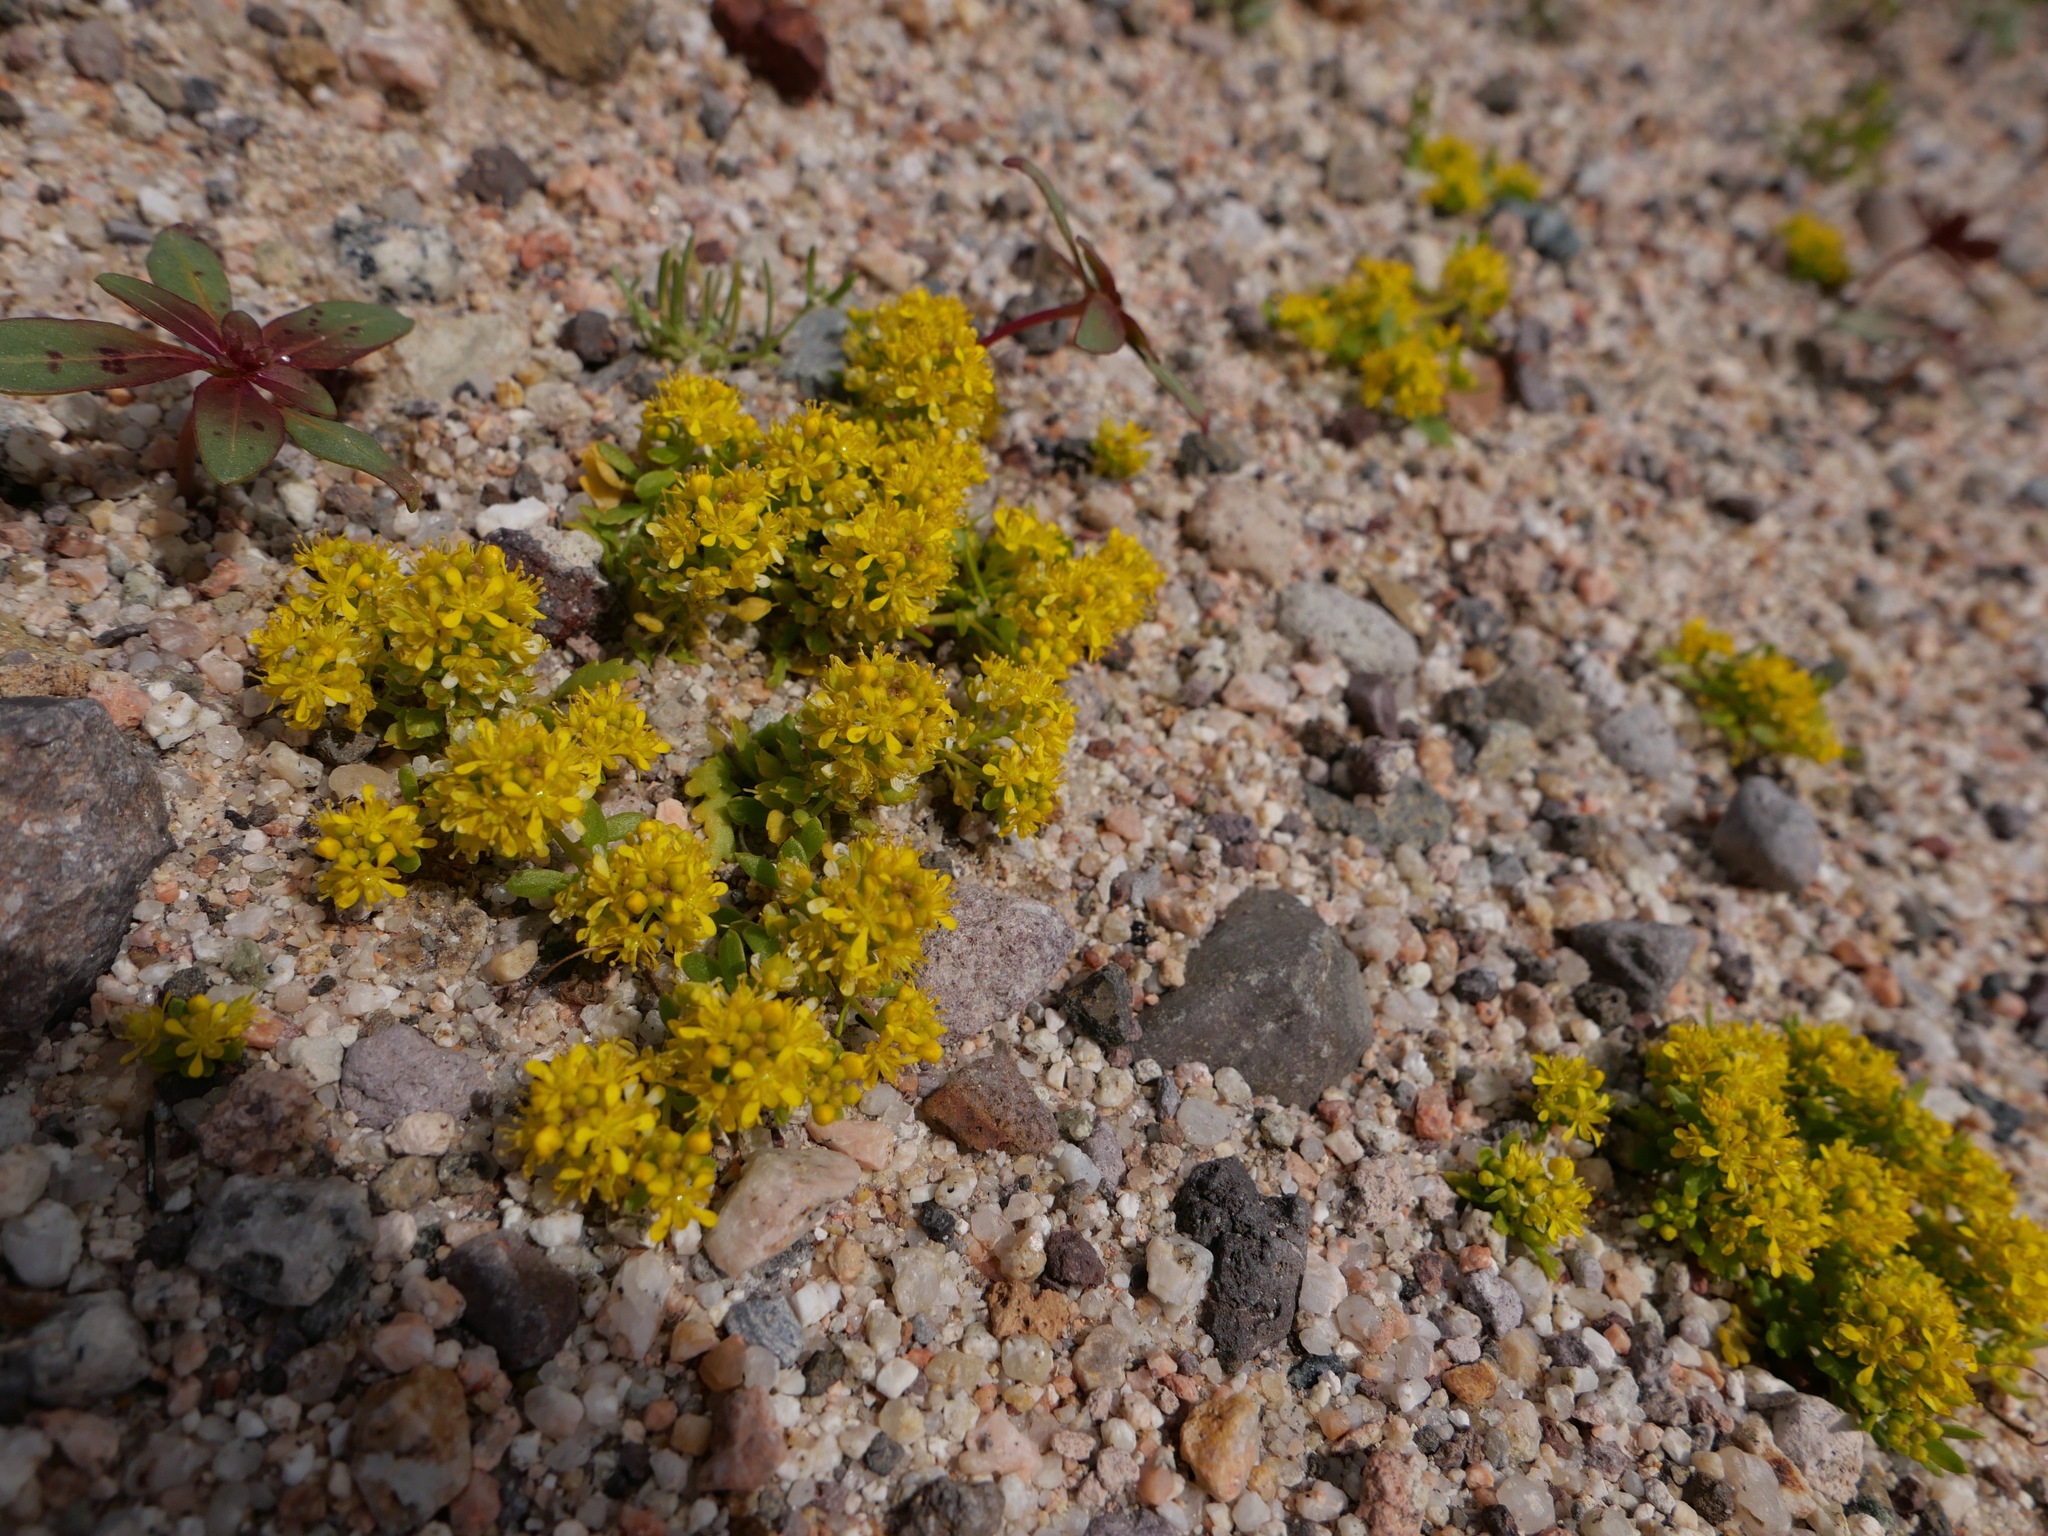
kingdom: Plantae
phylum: Tracheophyta
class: Magnoliopsida
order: Brassicales
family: Brassicaceae
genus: Lepidium
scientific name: Lepidium flavum
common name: Yellow pepperwort
